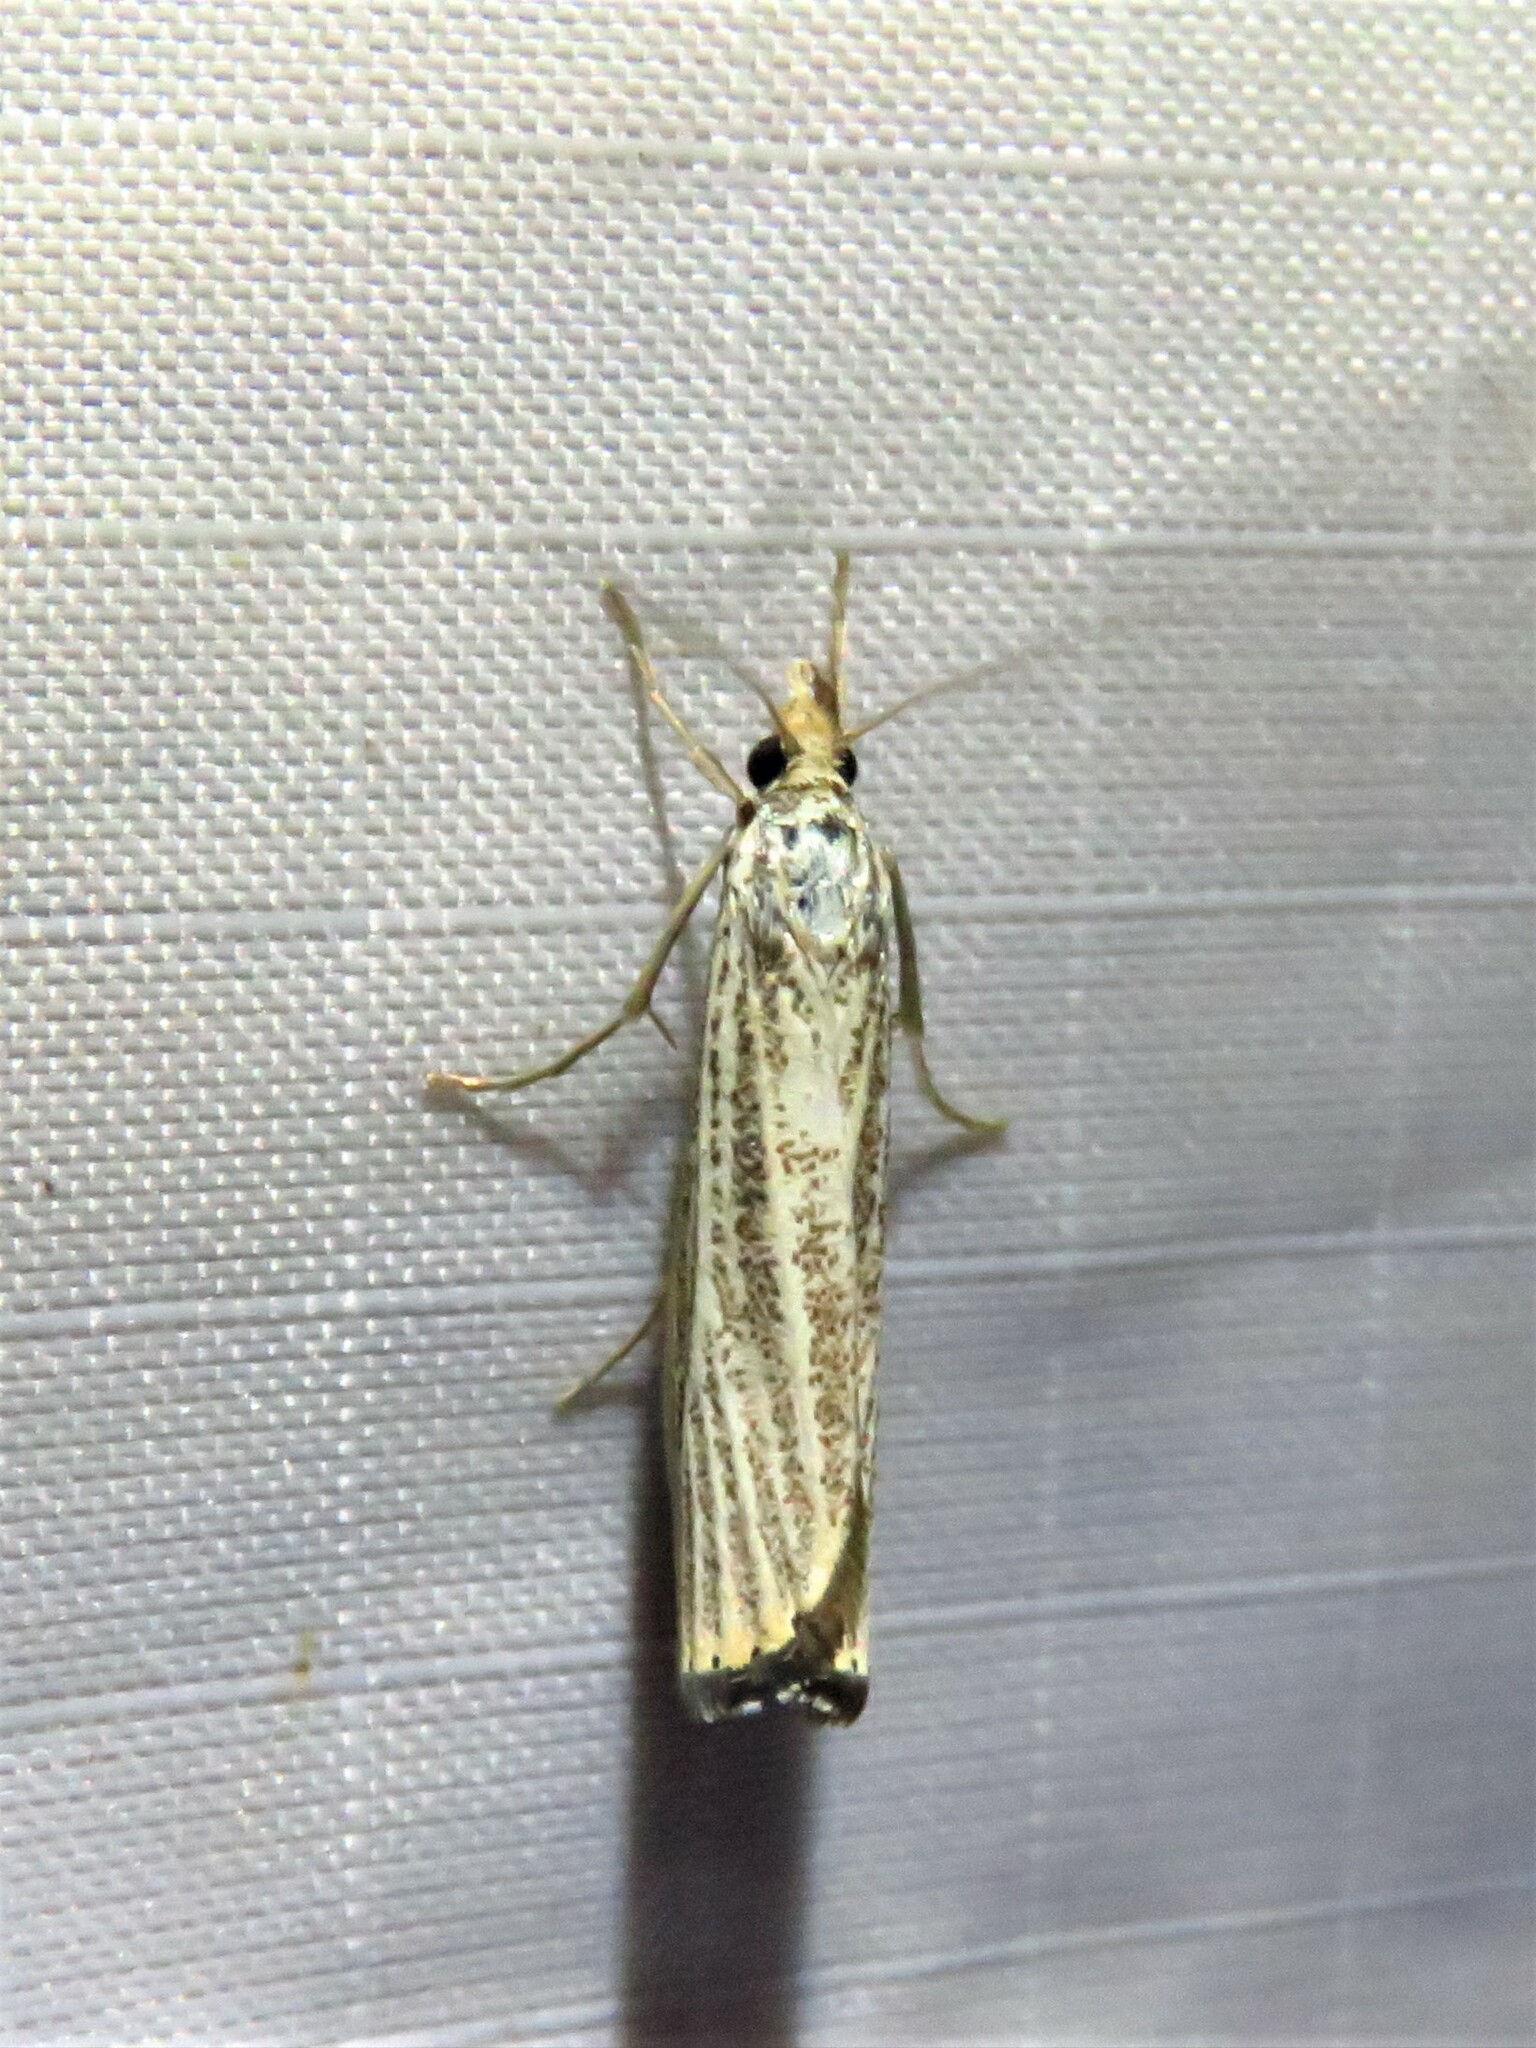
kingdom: Animalia
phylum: Arthropoda
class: Insecta
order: Lepidoptera
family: Crambidae
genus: Agriphila
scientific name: Agriphila vulgivagellus
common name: Vagabond crambus moth
